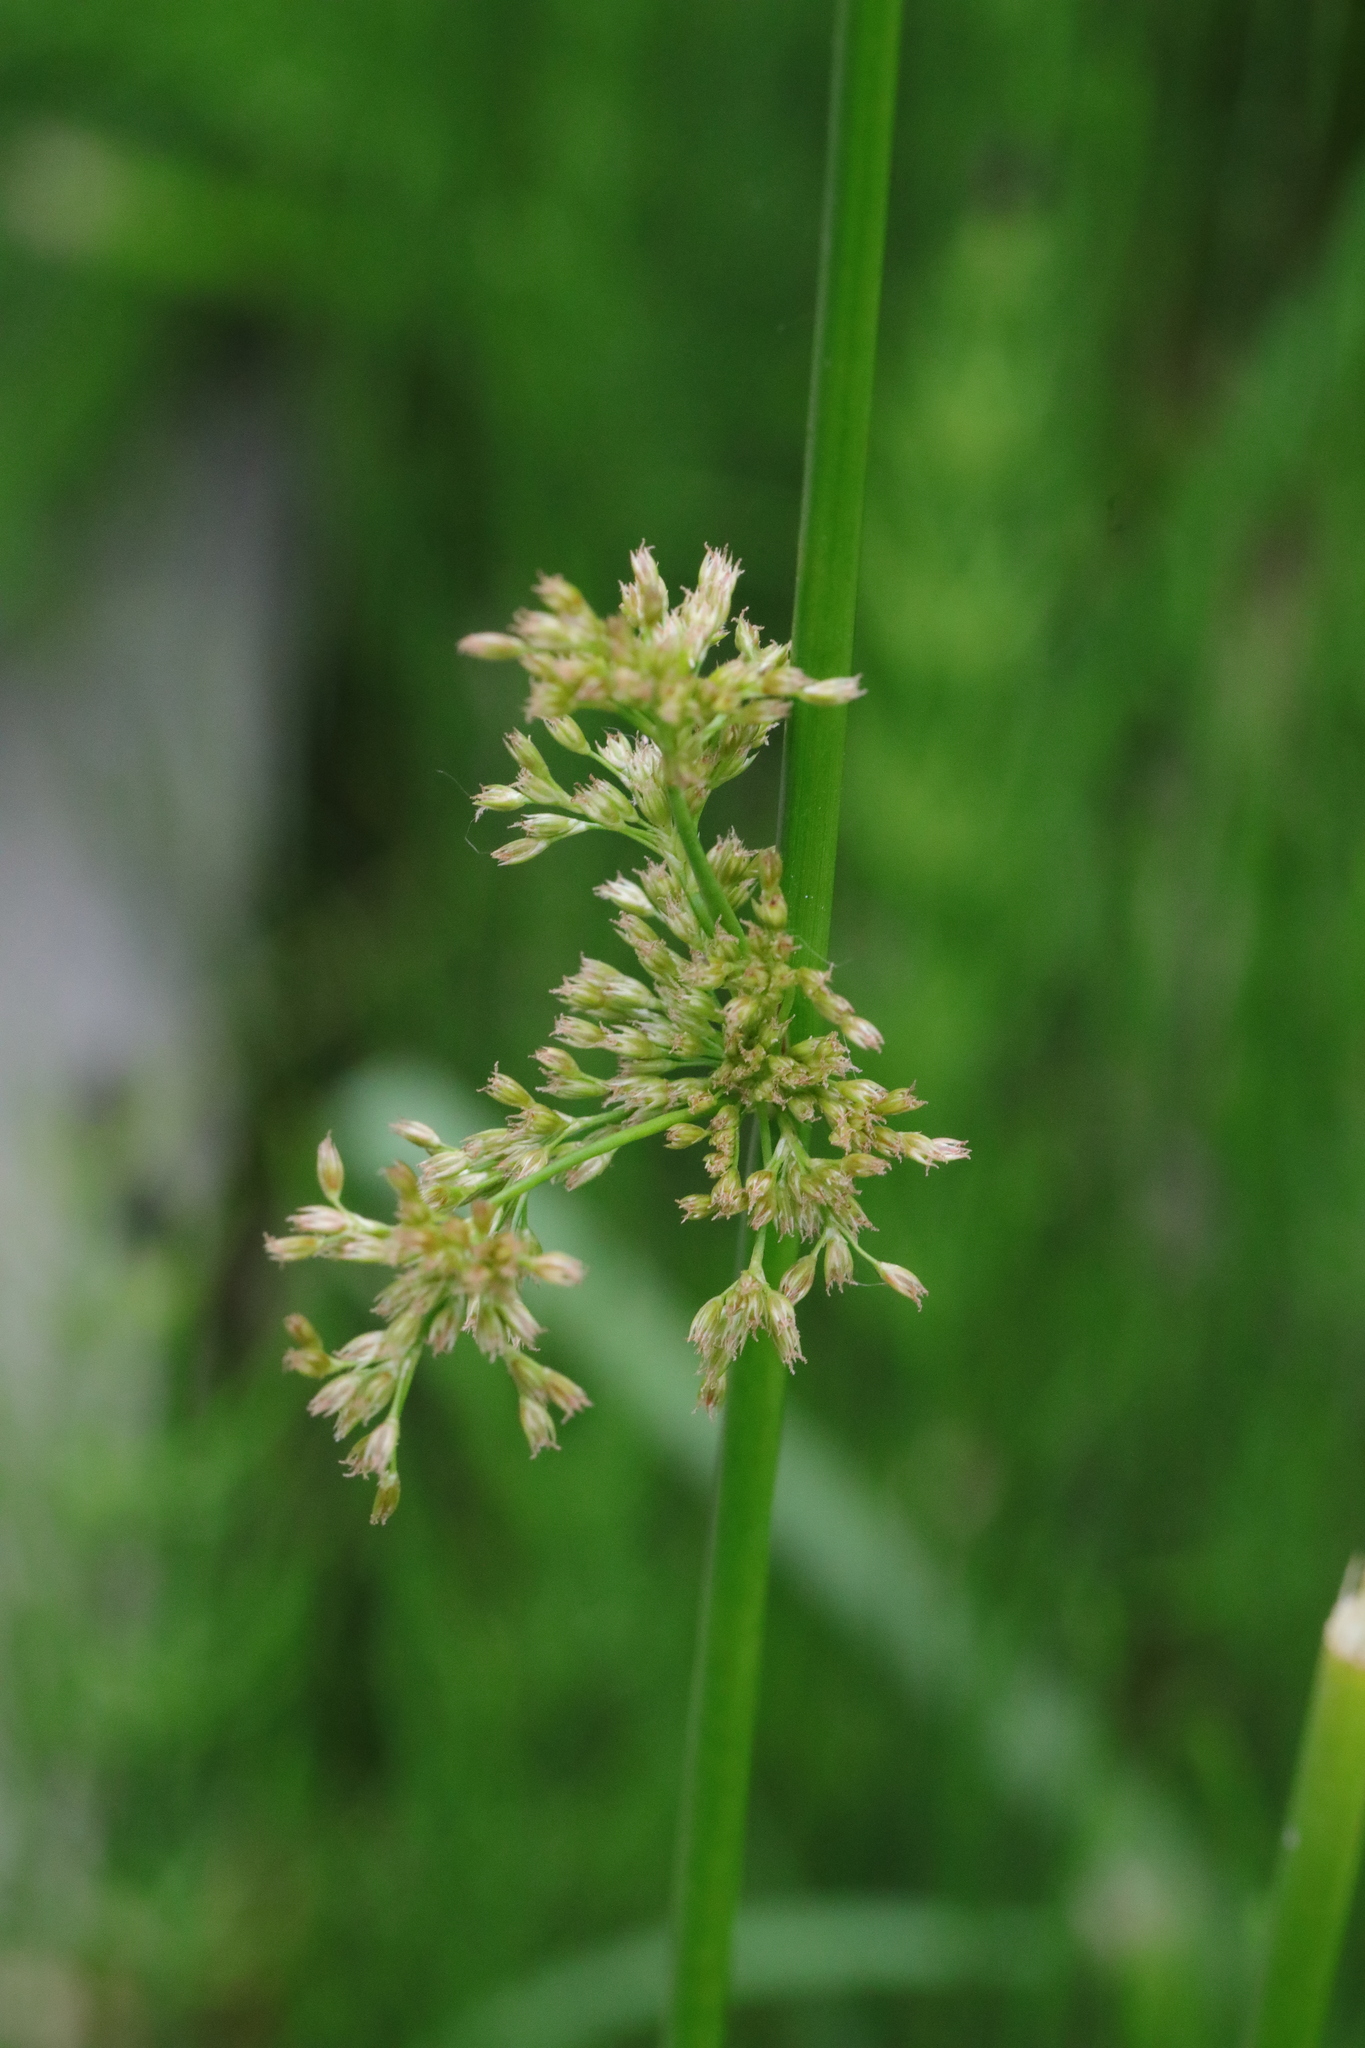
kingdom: Plantae
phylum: Tracheophyta
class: Liliopsida
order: Poales
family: Juncaceae
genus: Juncus
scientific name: Juncus effusus
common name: Soft rush
